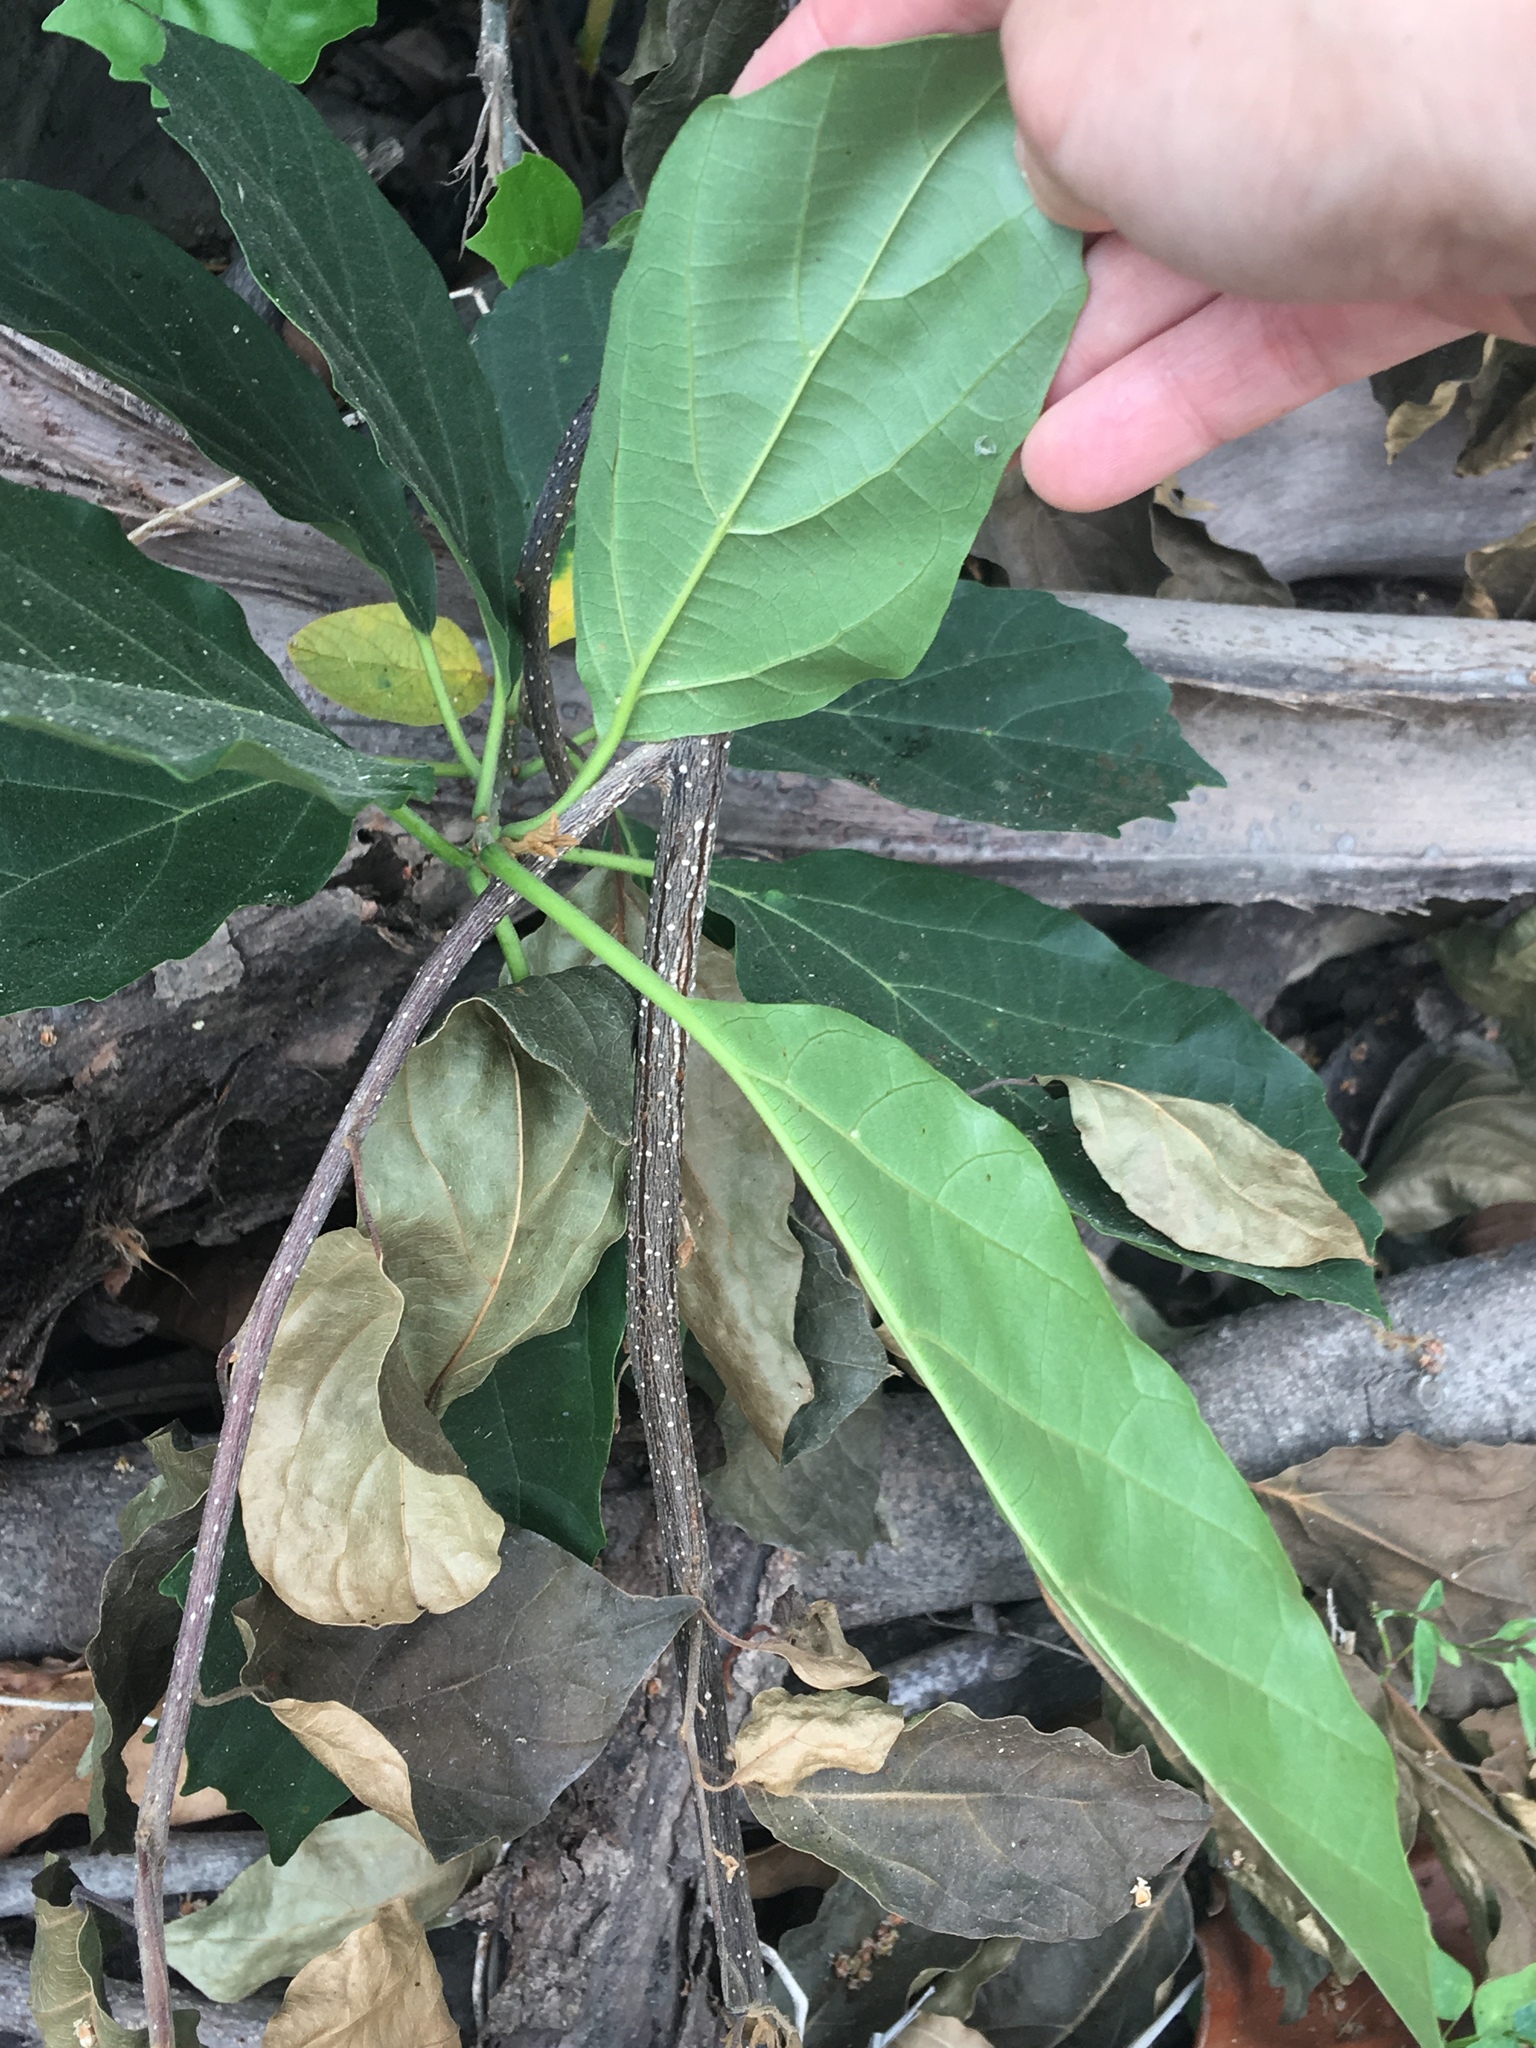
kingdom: Plantae
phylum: Tracheophyta
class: Magnoliopsida
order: Boraginales
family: Cordiaceae
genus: Cordia
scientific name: Cordia dichotoma
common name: Fragrant manjack
